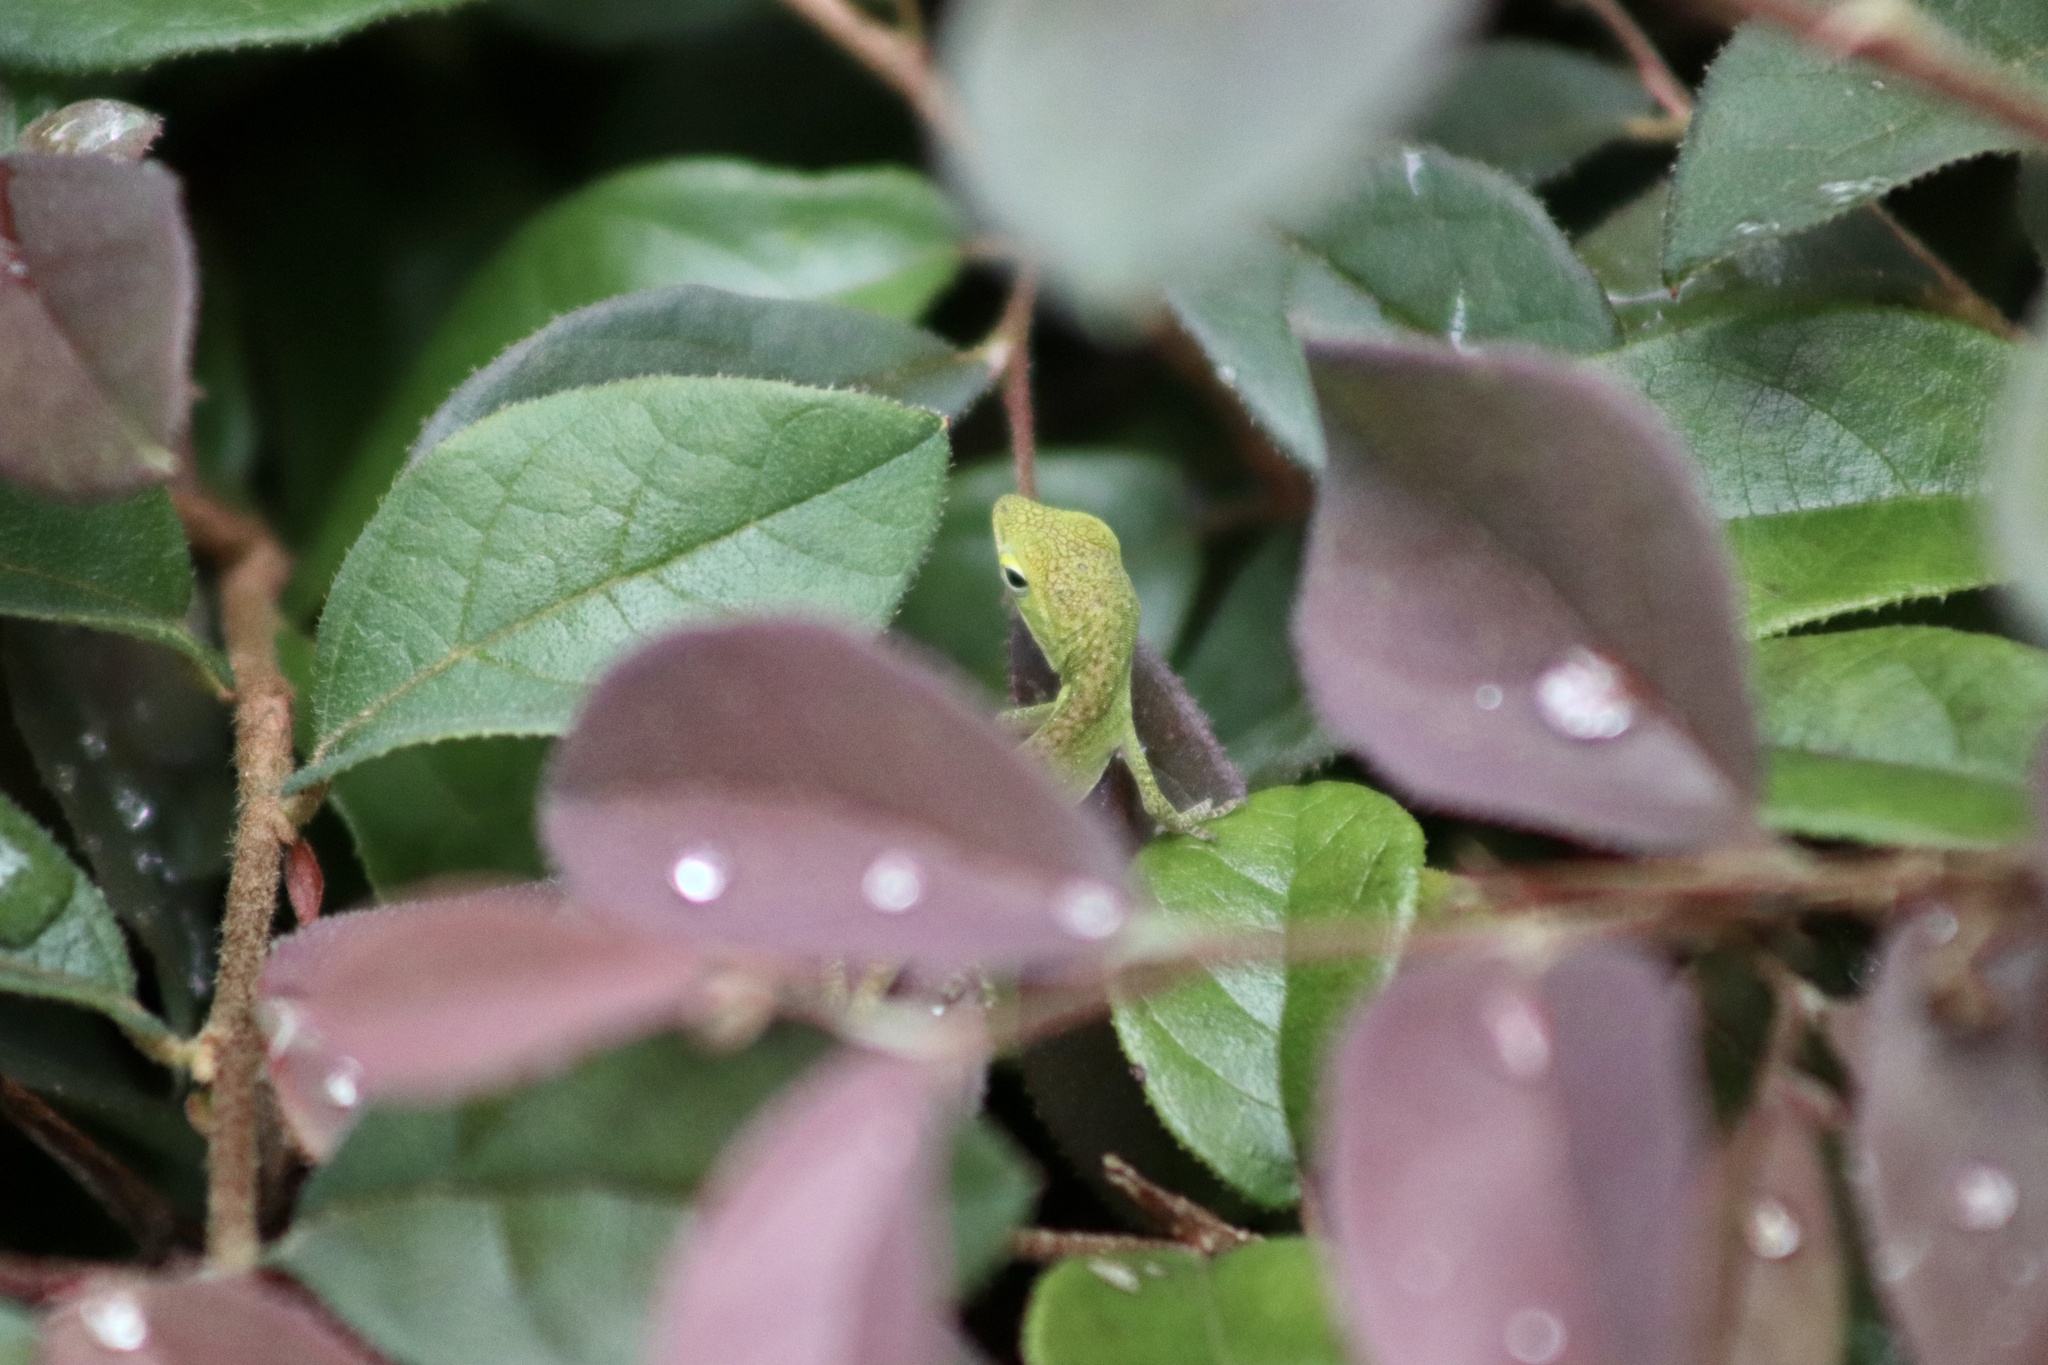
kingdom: Animalia
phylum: Chordata
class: Squamata
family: Dactyloidae
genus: Anolis
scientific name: Anolis carolinensis
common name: Green anole
